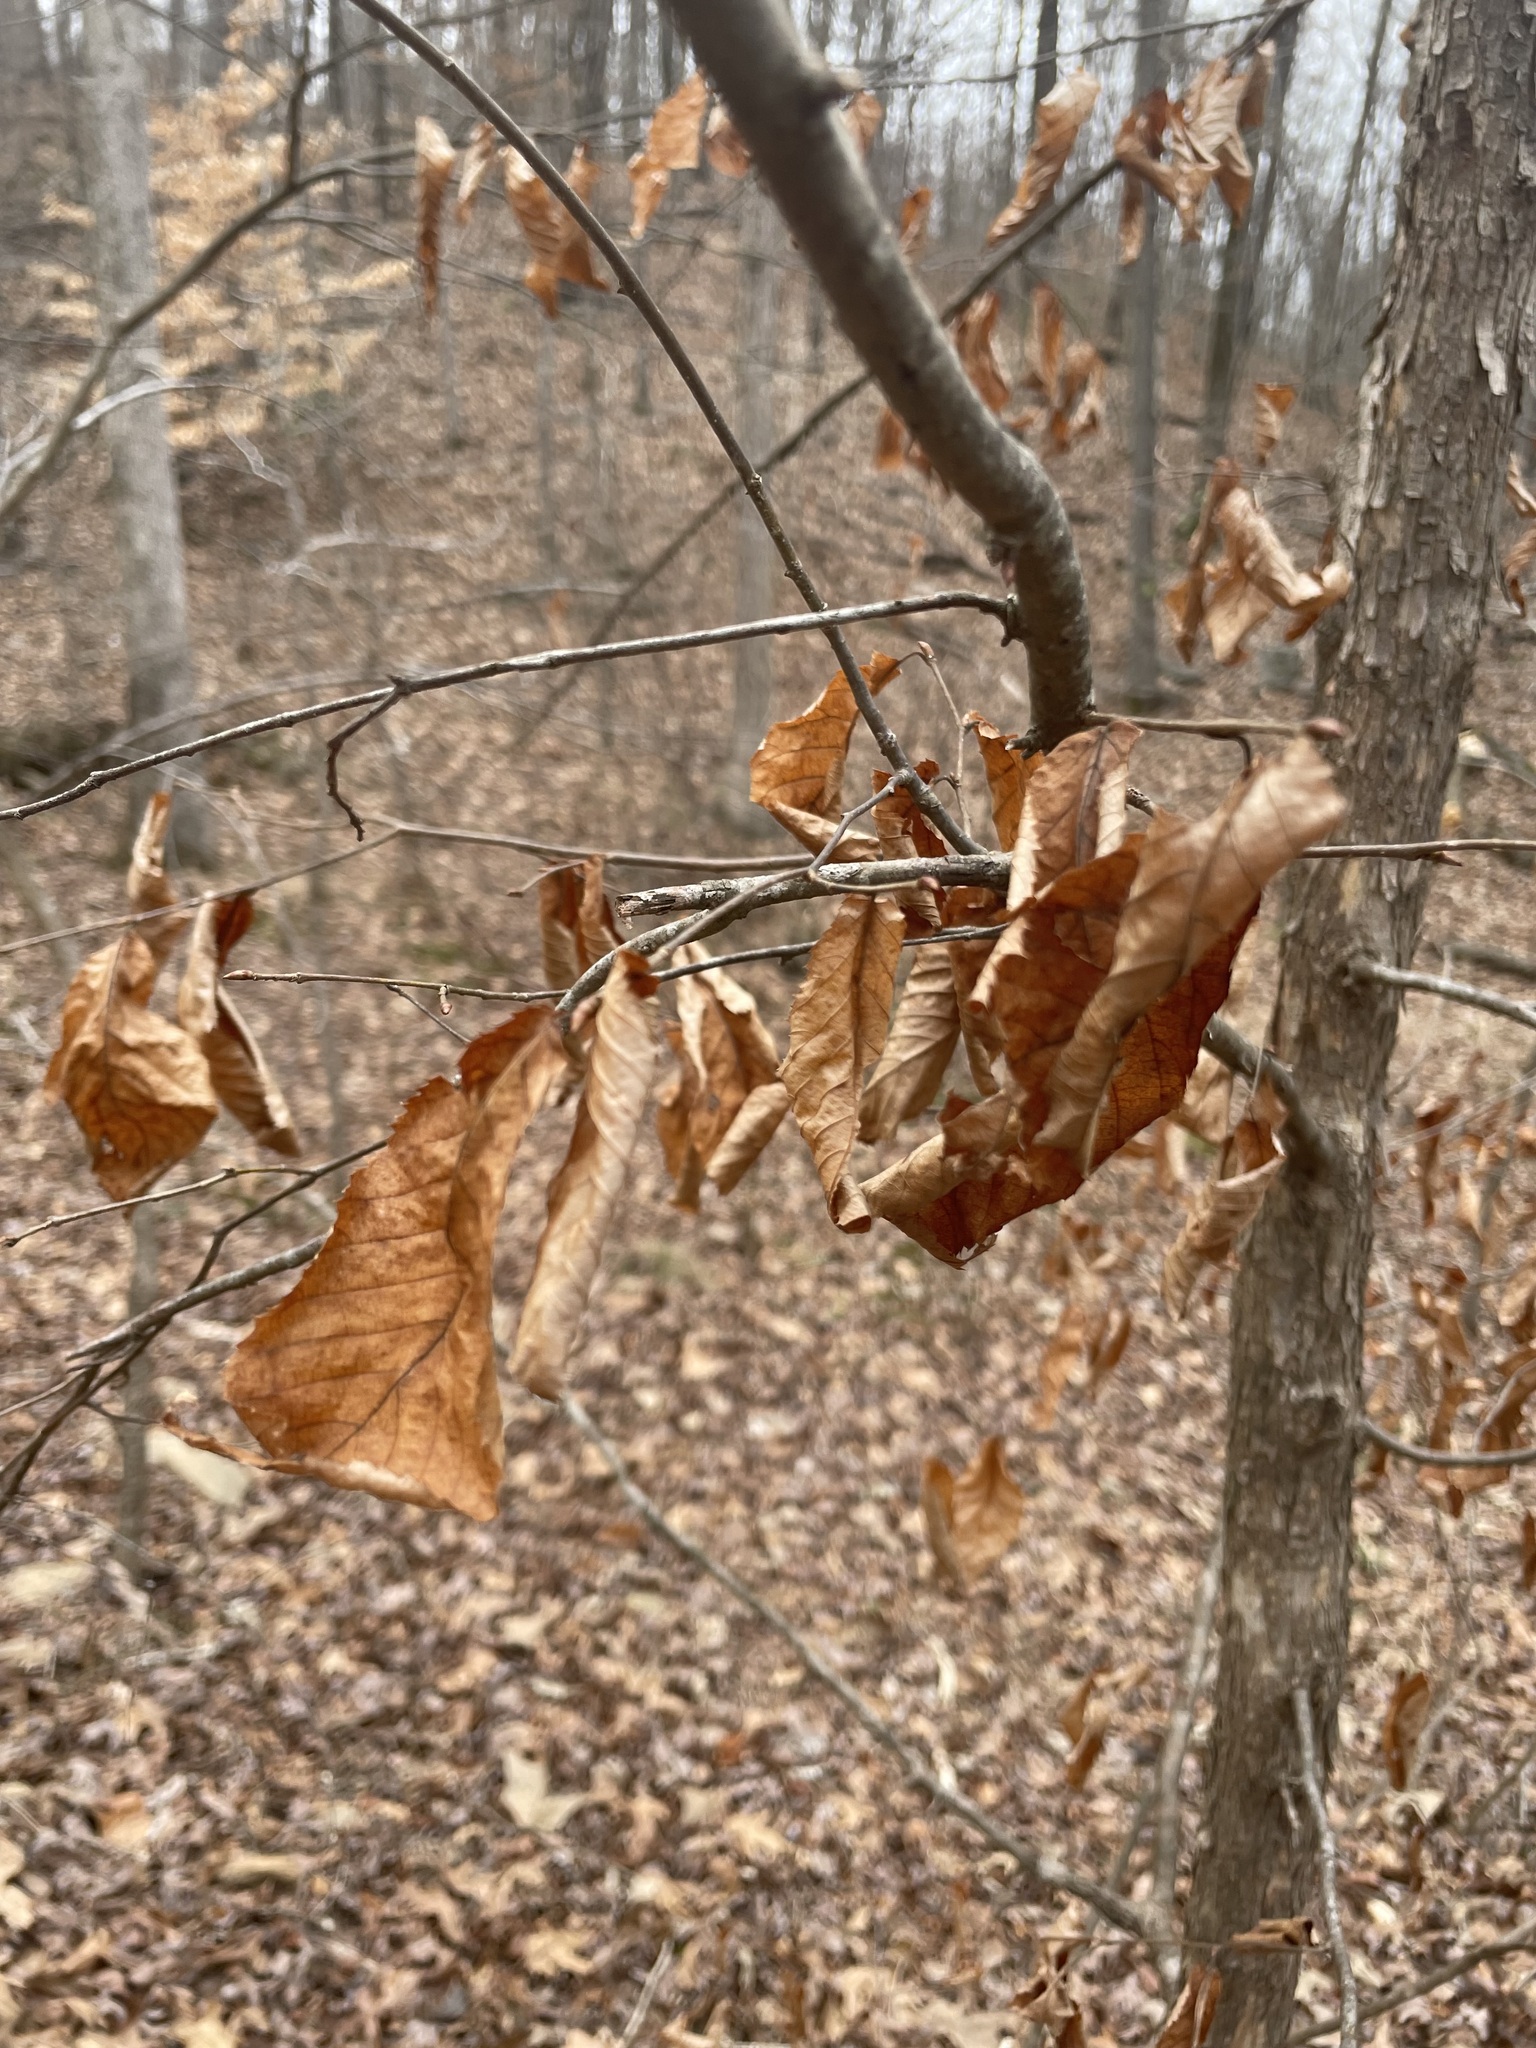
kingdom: Plantae
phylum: Tracheophyta
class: Magnoliopsida
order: Fagales
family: Betulaceae
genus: Ostrya
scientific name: Ostrya virginiana
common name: Ironwood
